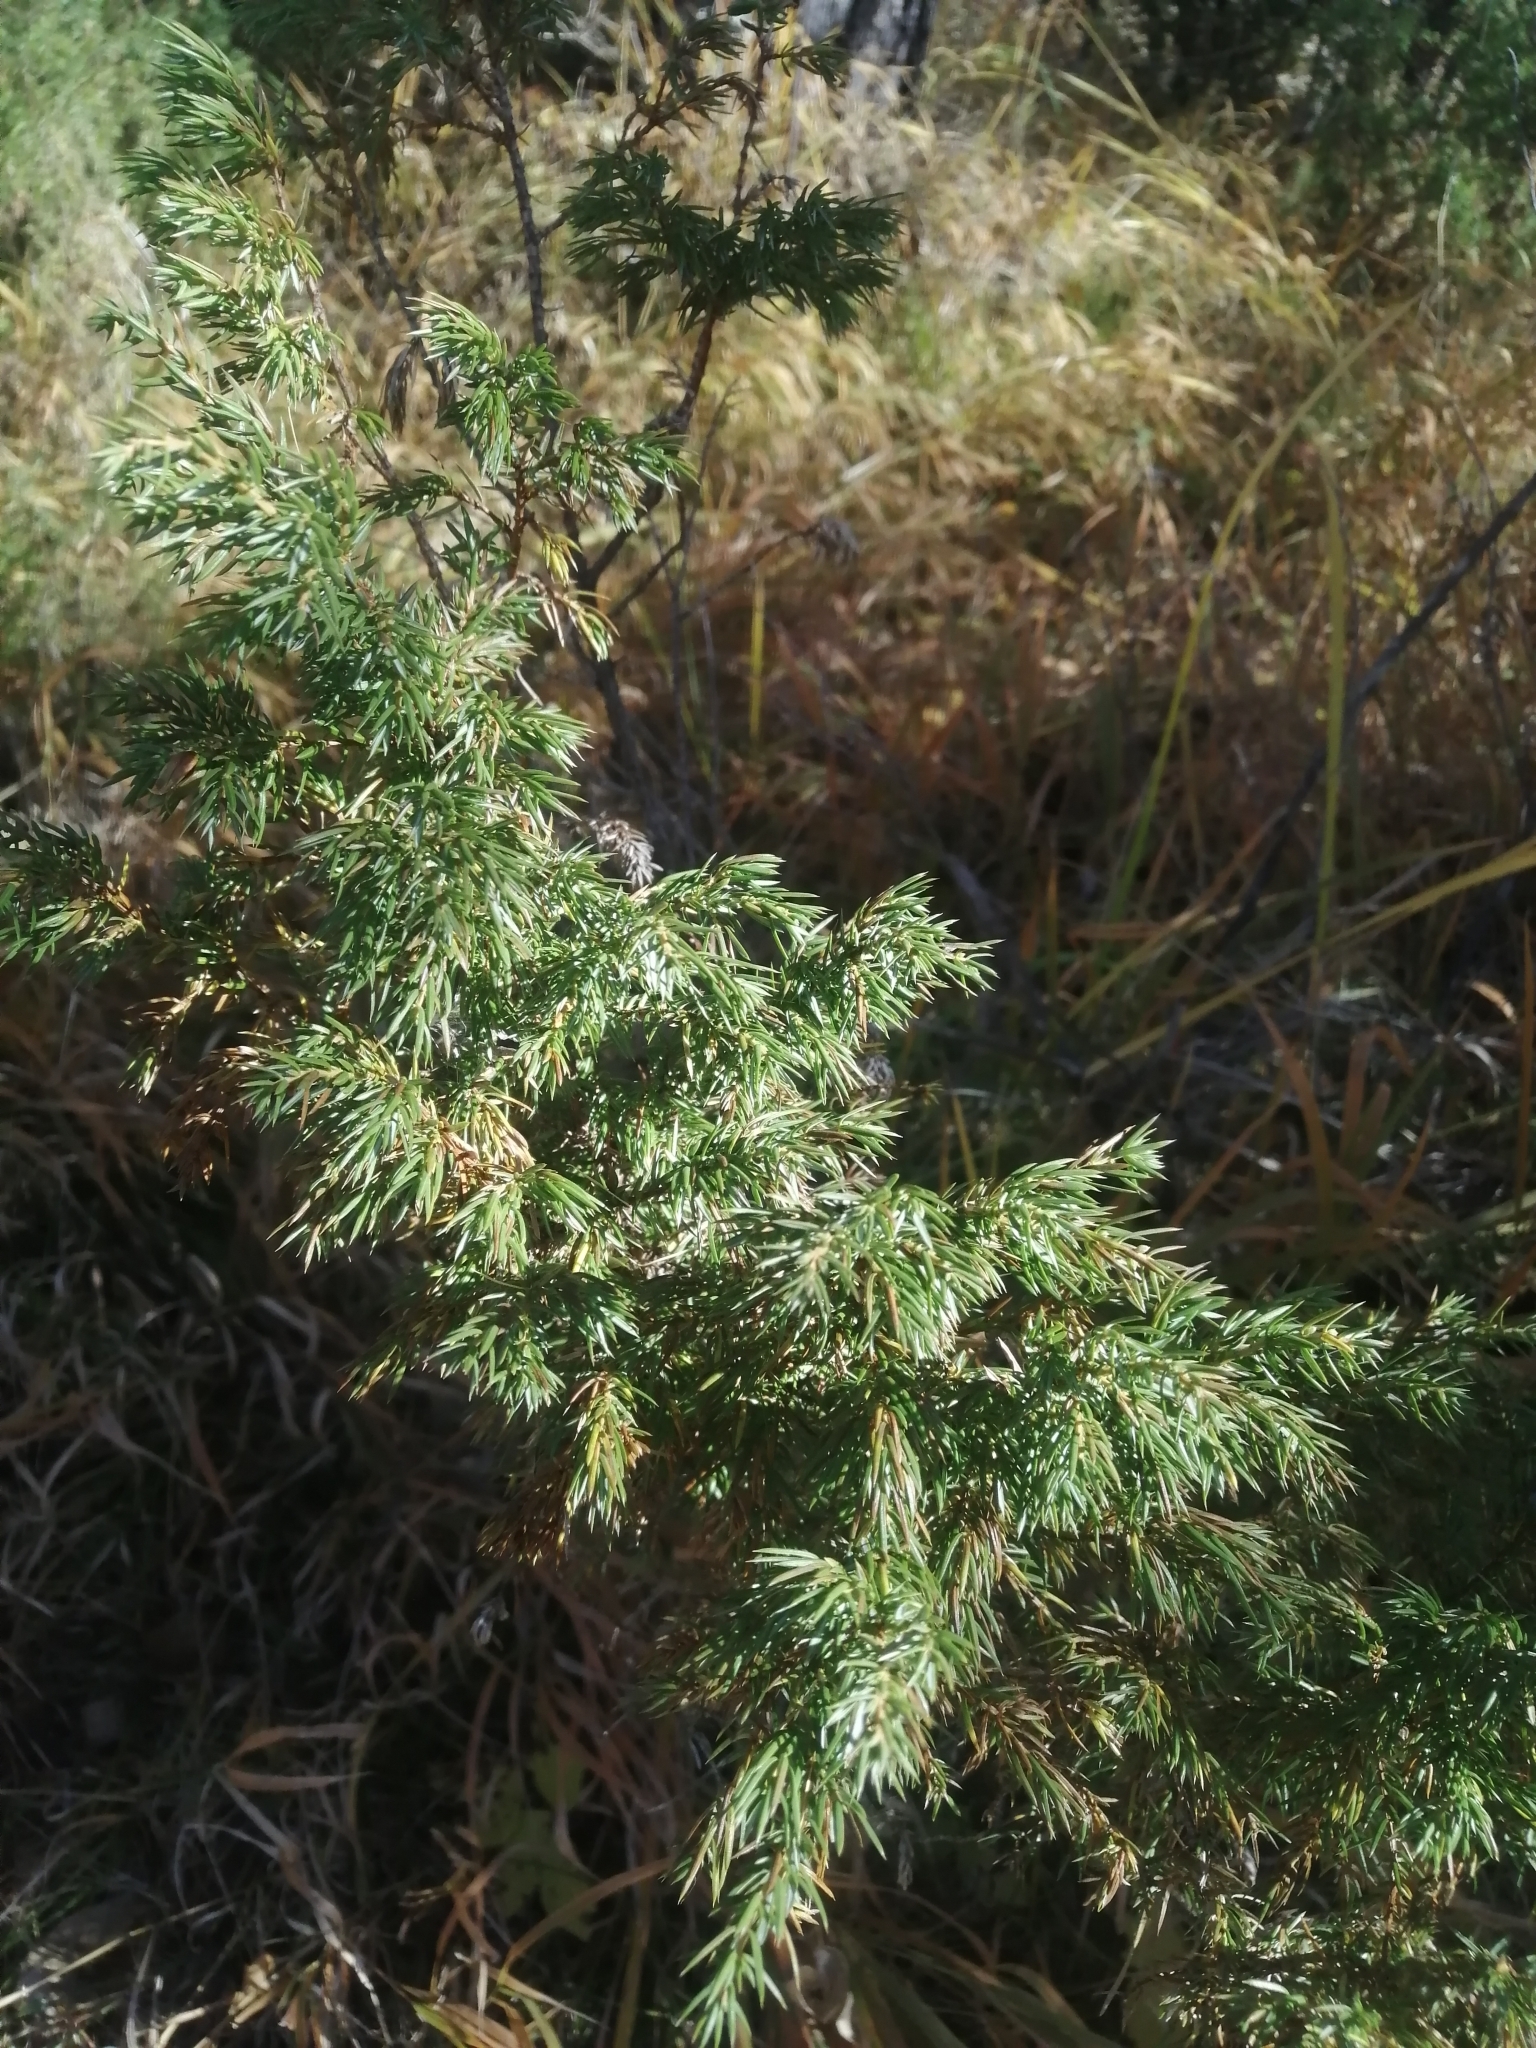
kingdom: Plantae
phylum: Tracheophyta
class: Pinopsida
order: Pinales
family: Cupressaceae
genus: Juniperus
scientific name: Juniperus communis
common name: Common juniper
